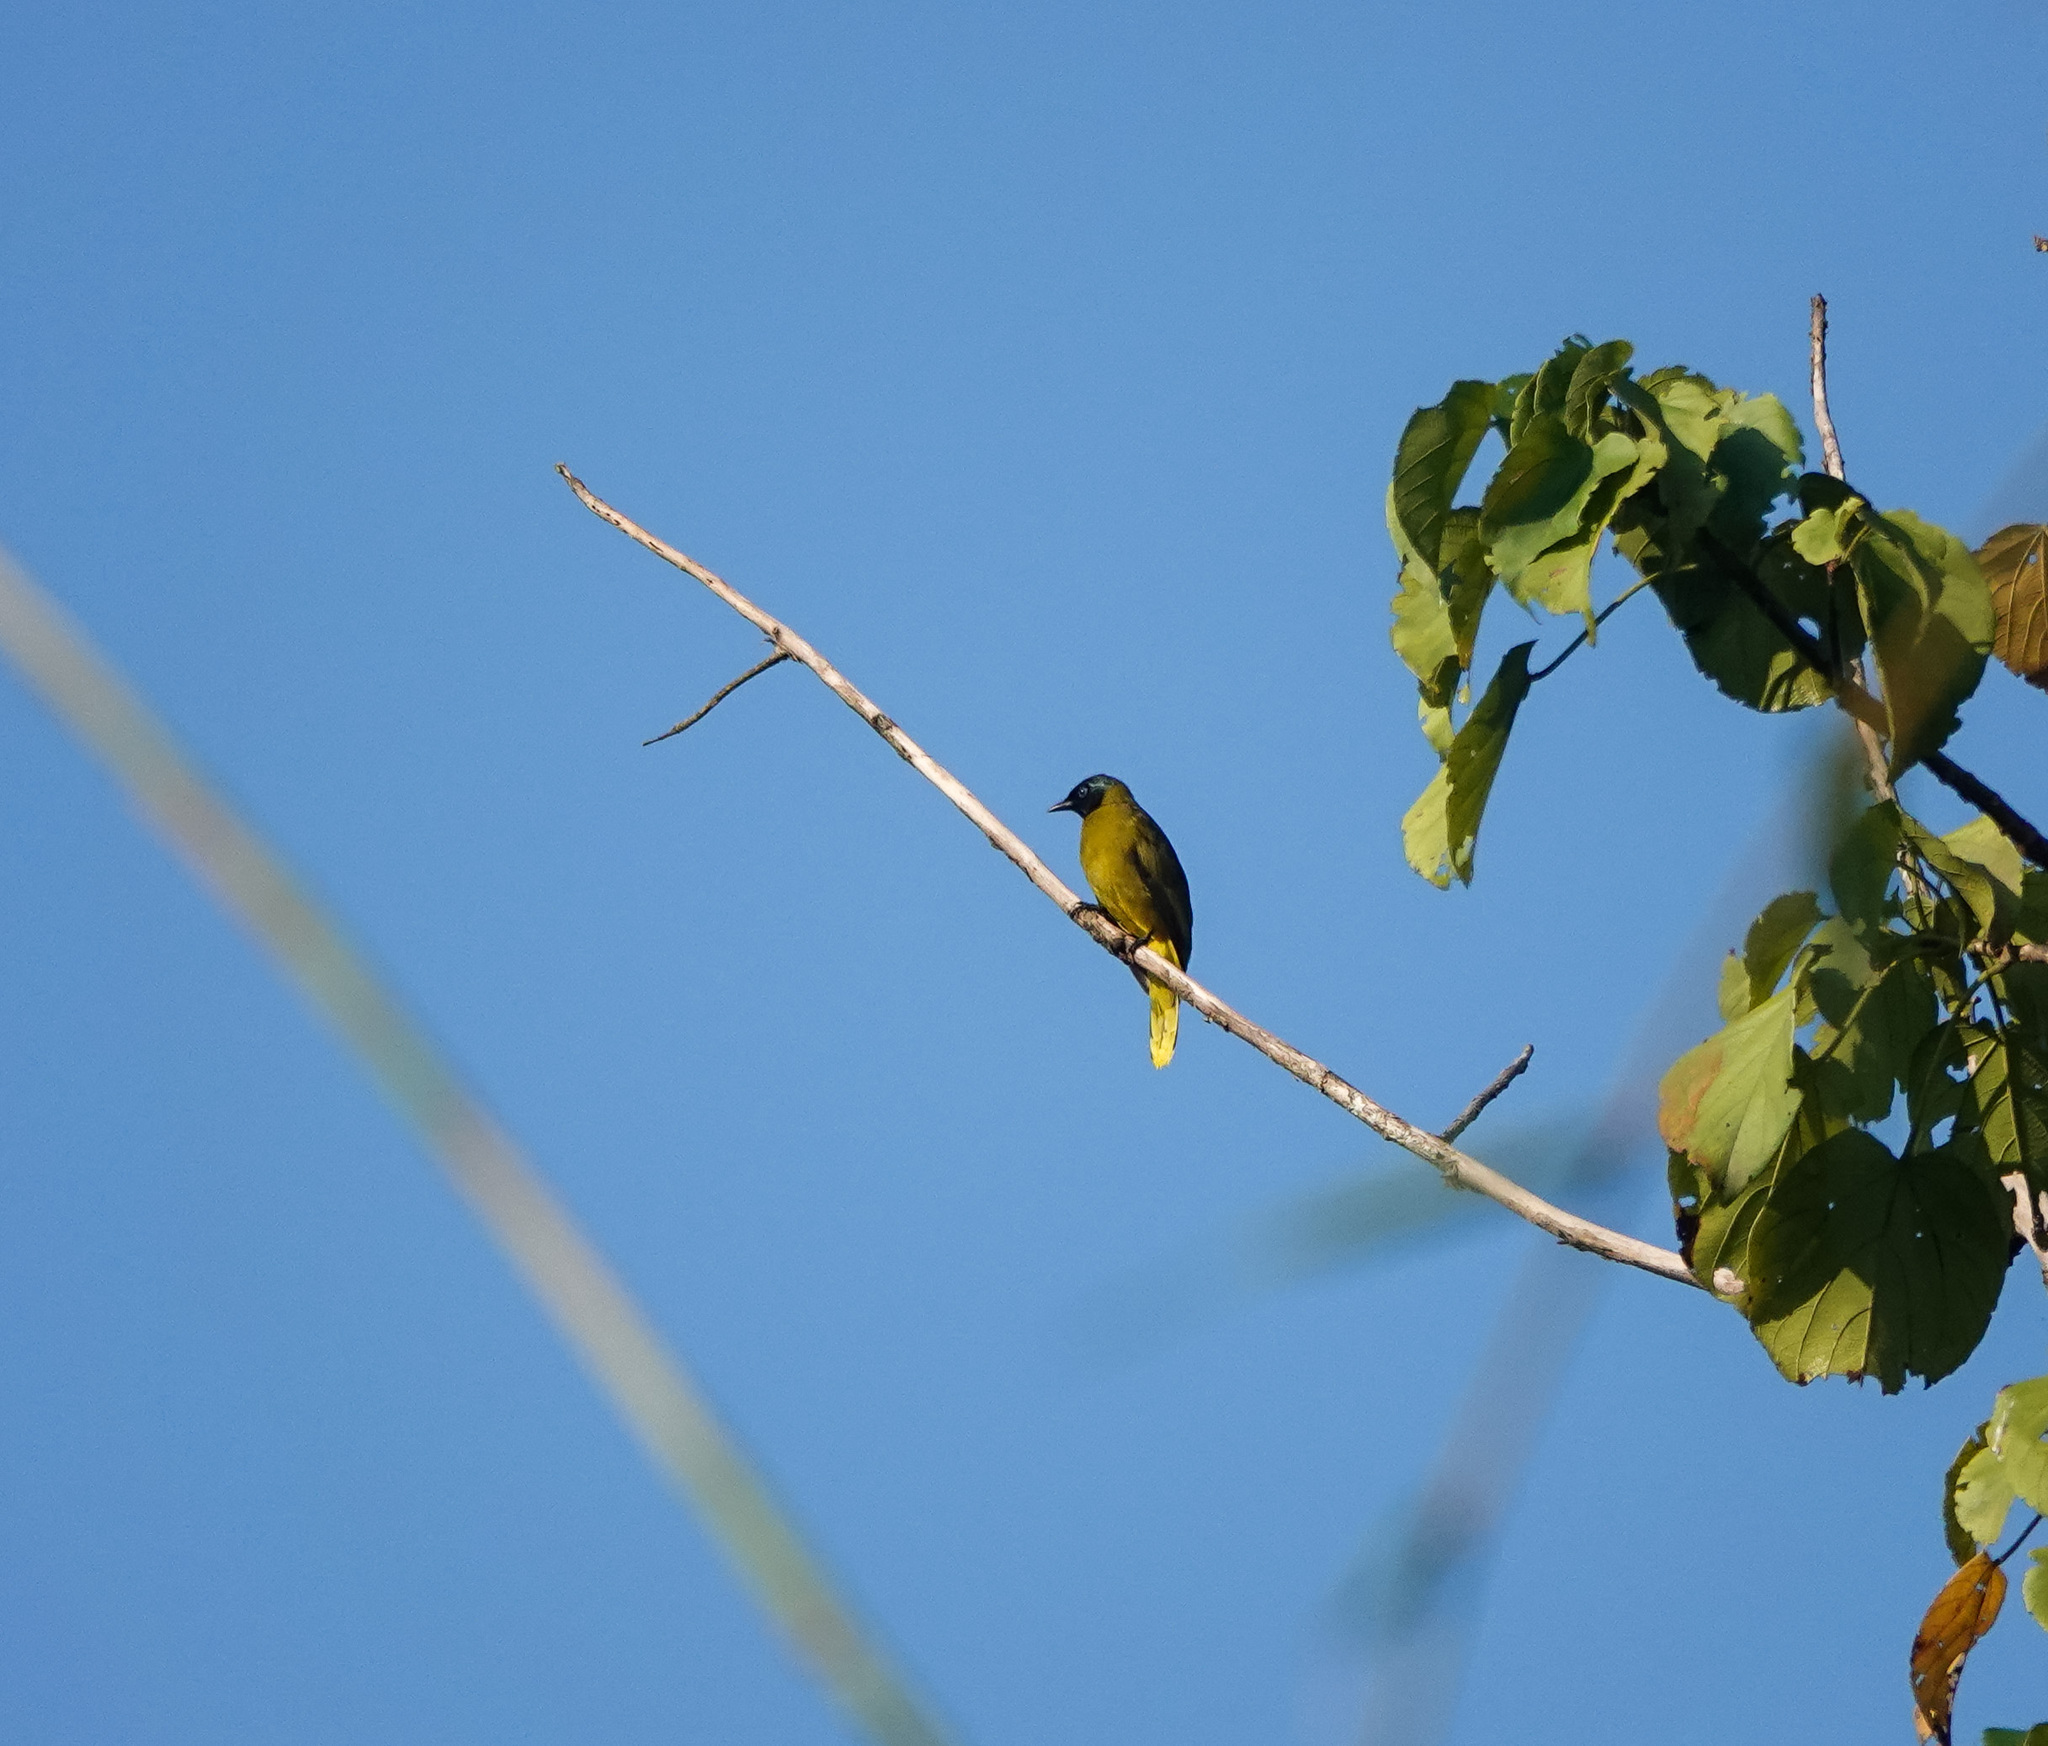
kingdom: Animalia
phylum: Chordata
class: Aves
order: Passeriformes
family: Pycnonotidae
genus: Microtarsus
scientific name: Microtarsus
